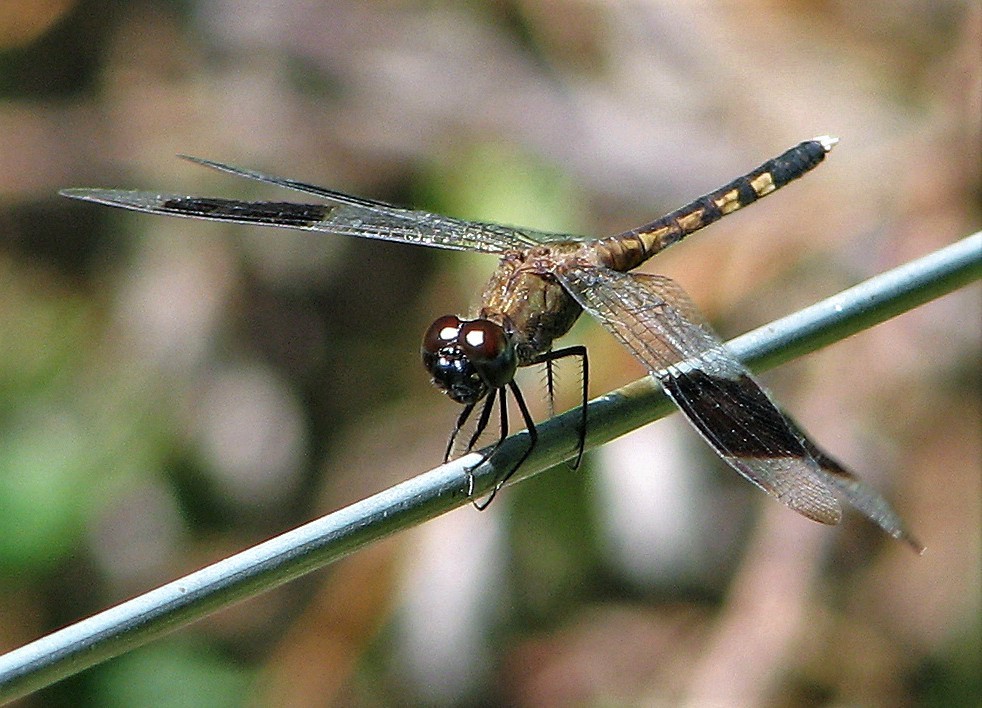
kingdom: Animalia
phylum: Arthropoda
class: Insecta
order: Odonata
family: Libellulidae
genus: Erythrodiplax
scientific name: Erythrodiplax umbrata
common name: Band-winged dragonlet
